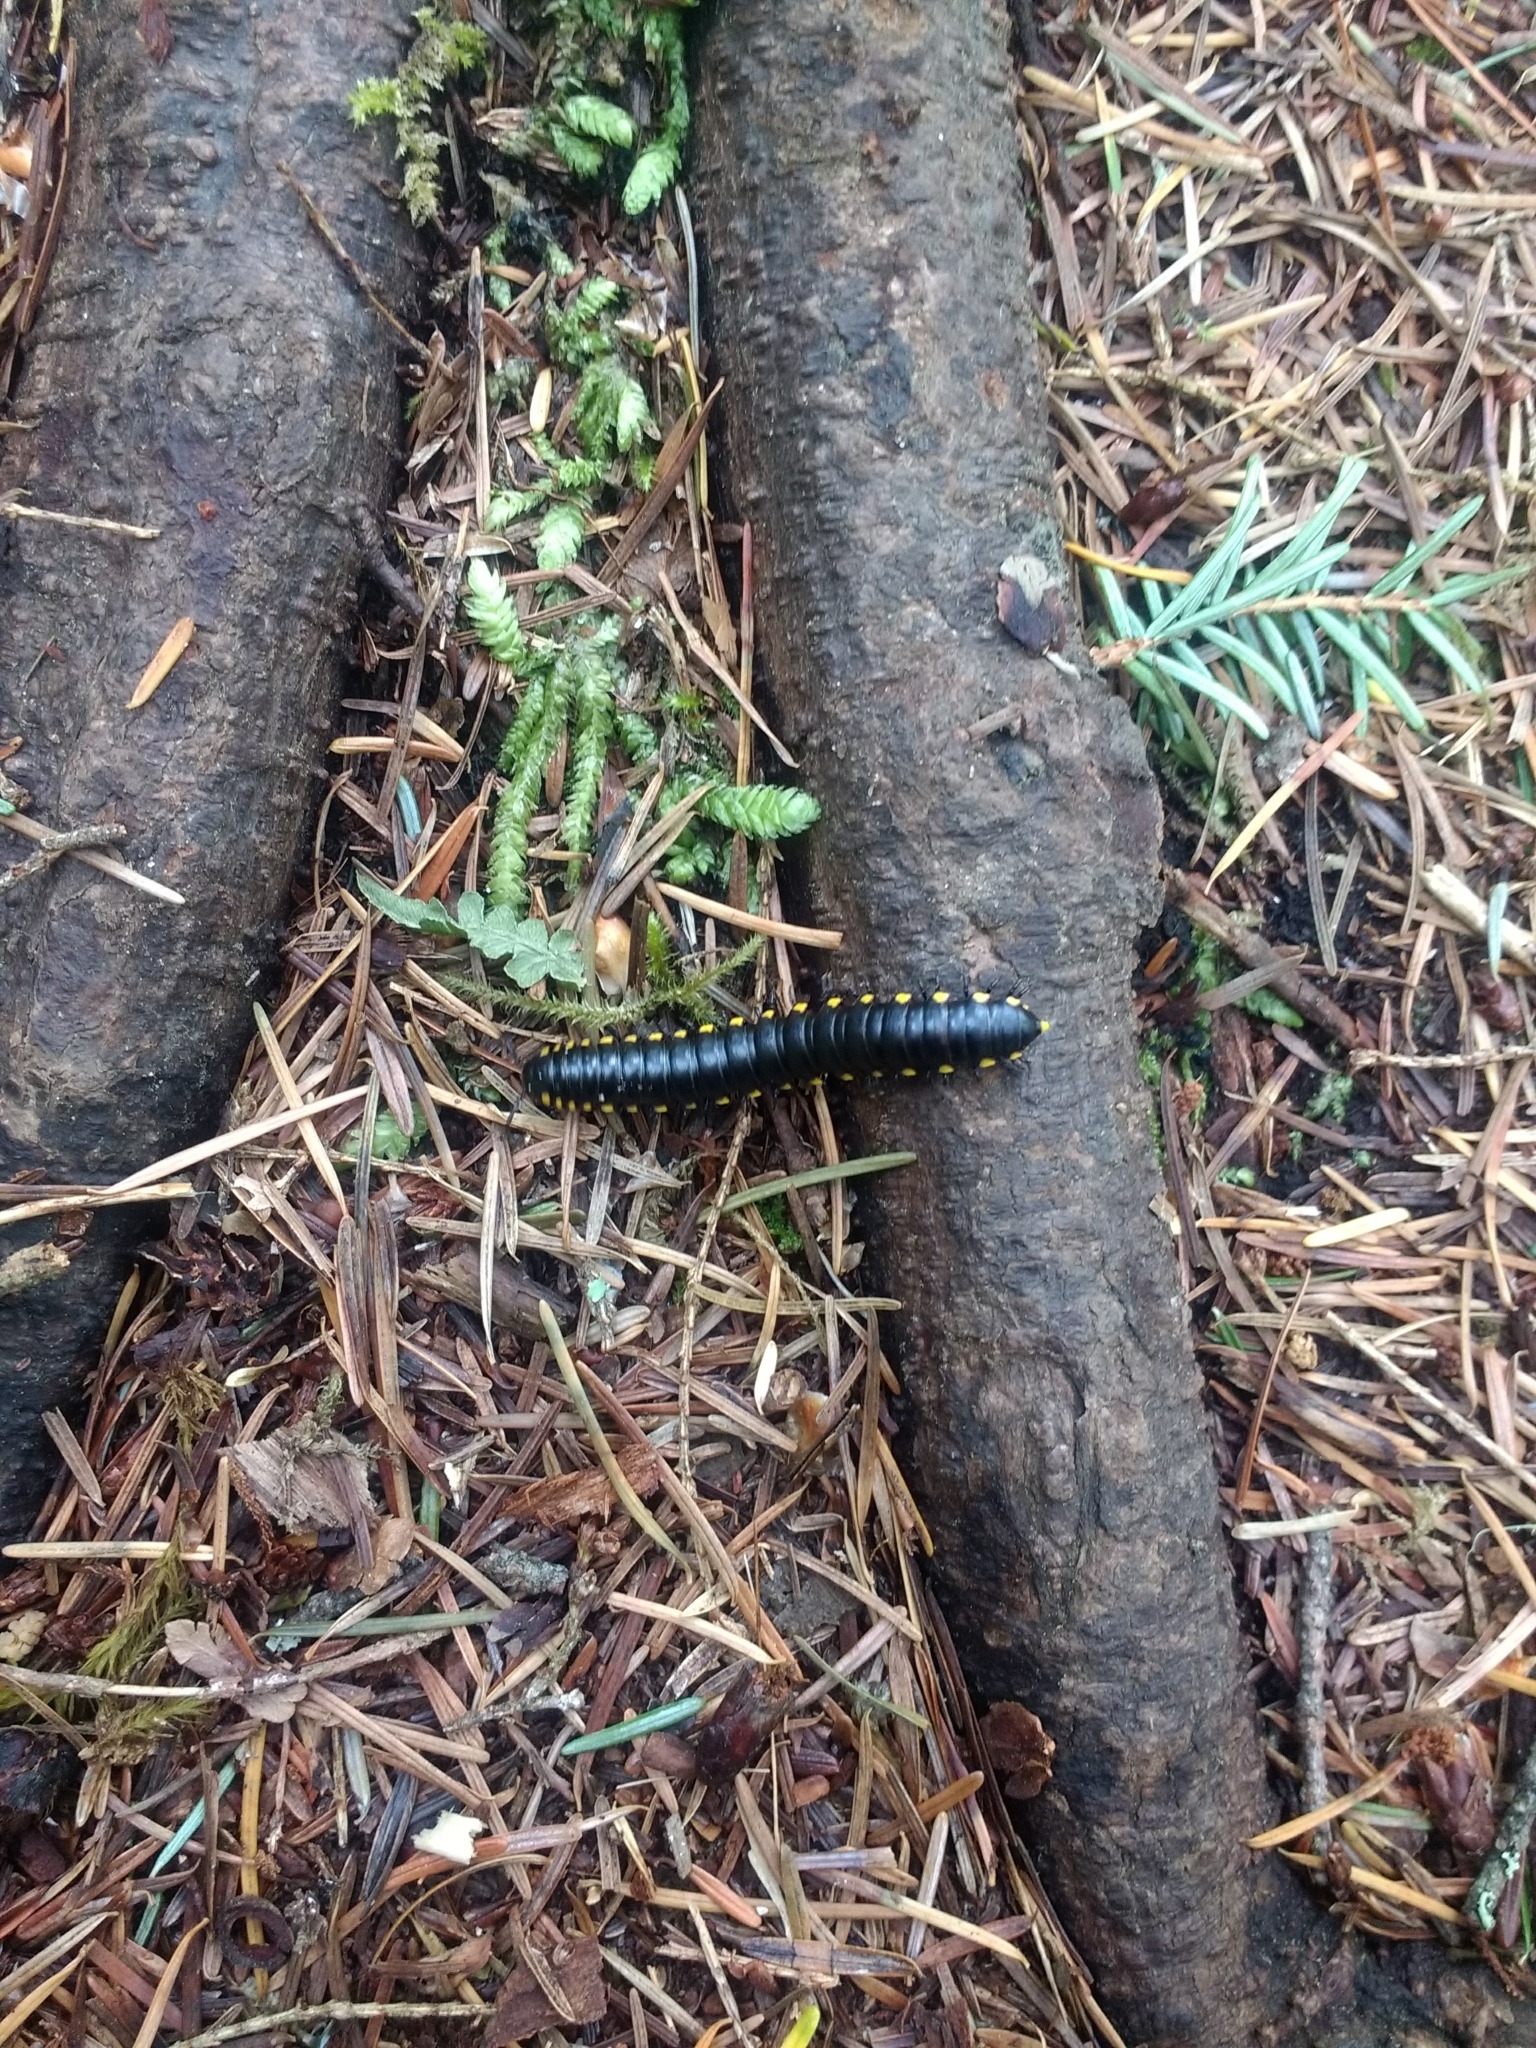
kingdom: Animalia
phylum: Arthropoda
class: Diplopoda
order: Polydesmida
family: Xystodesmidae
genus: Harpaphe
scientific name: Harpaphe haydeniana
